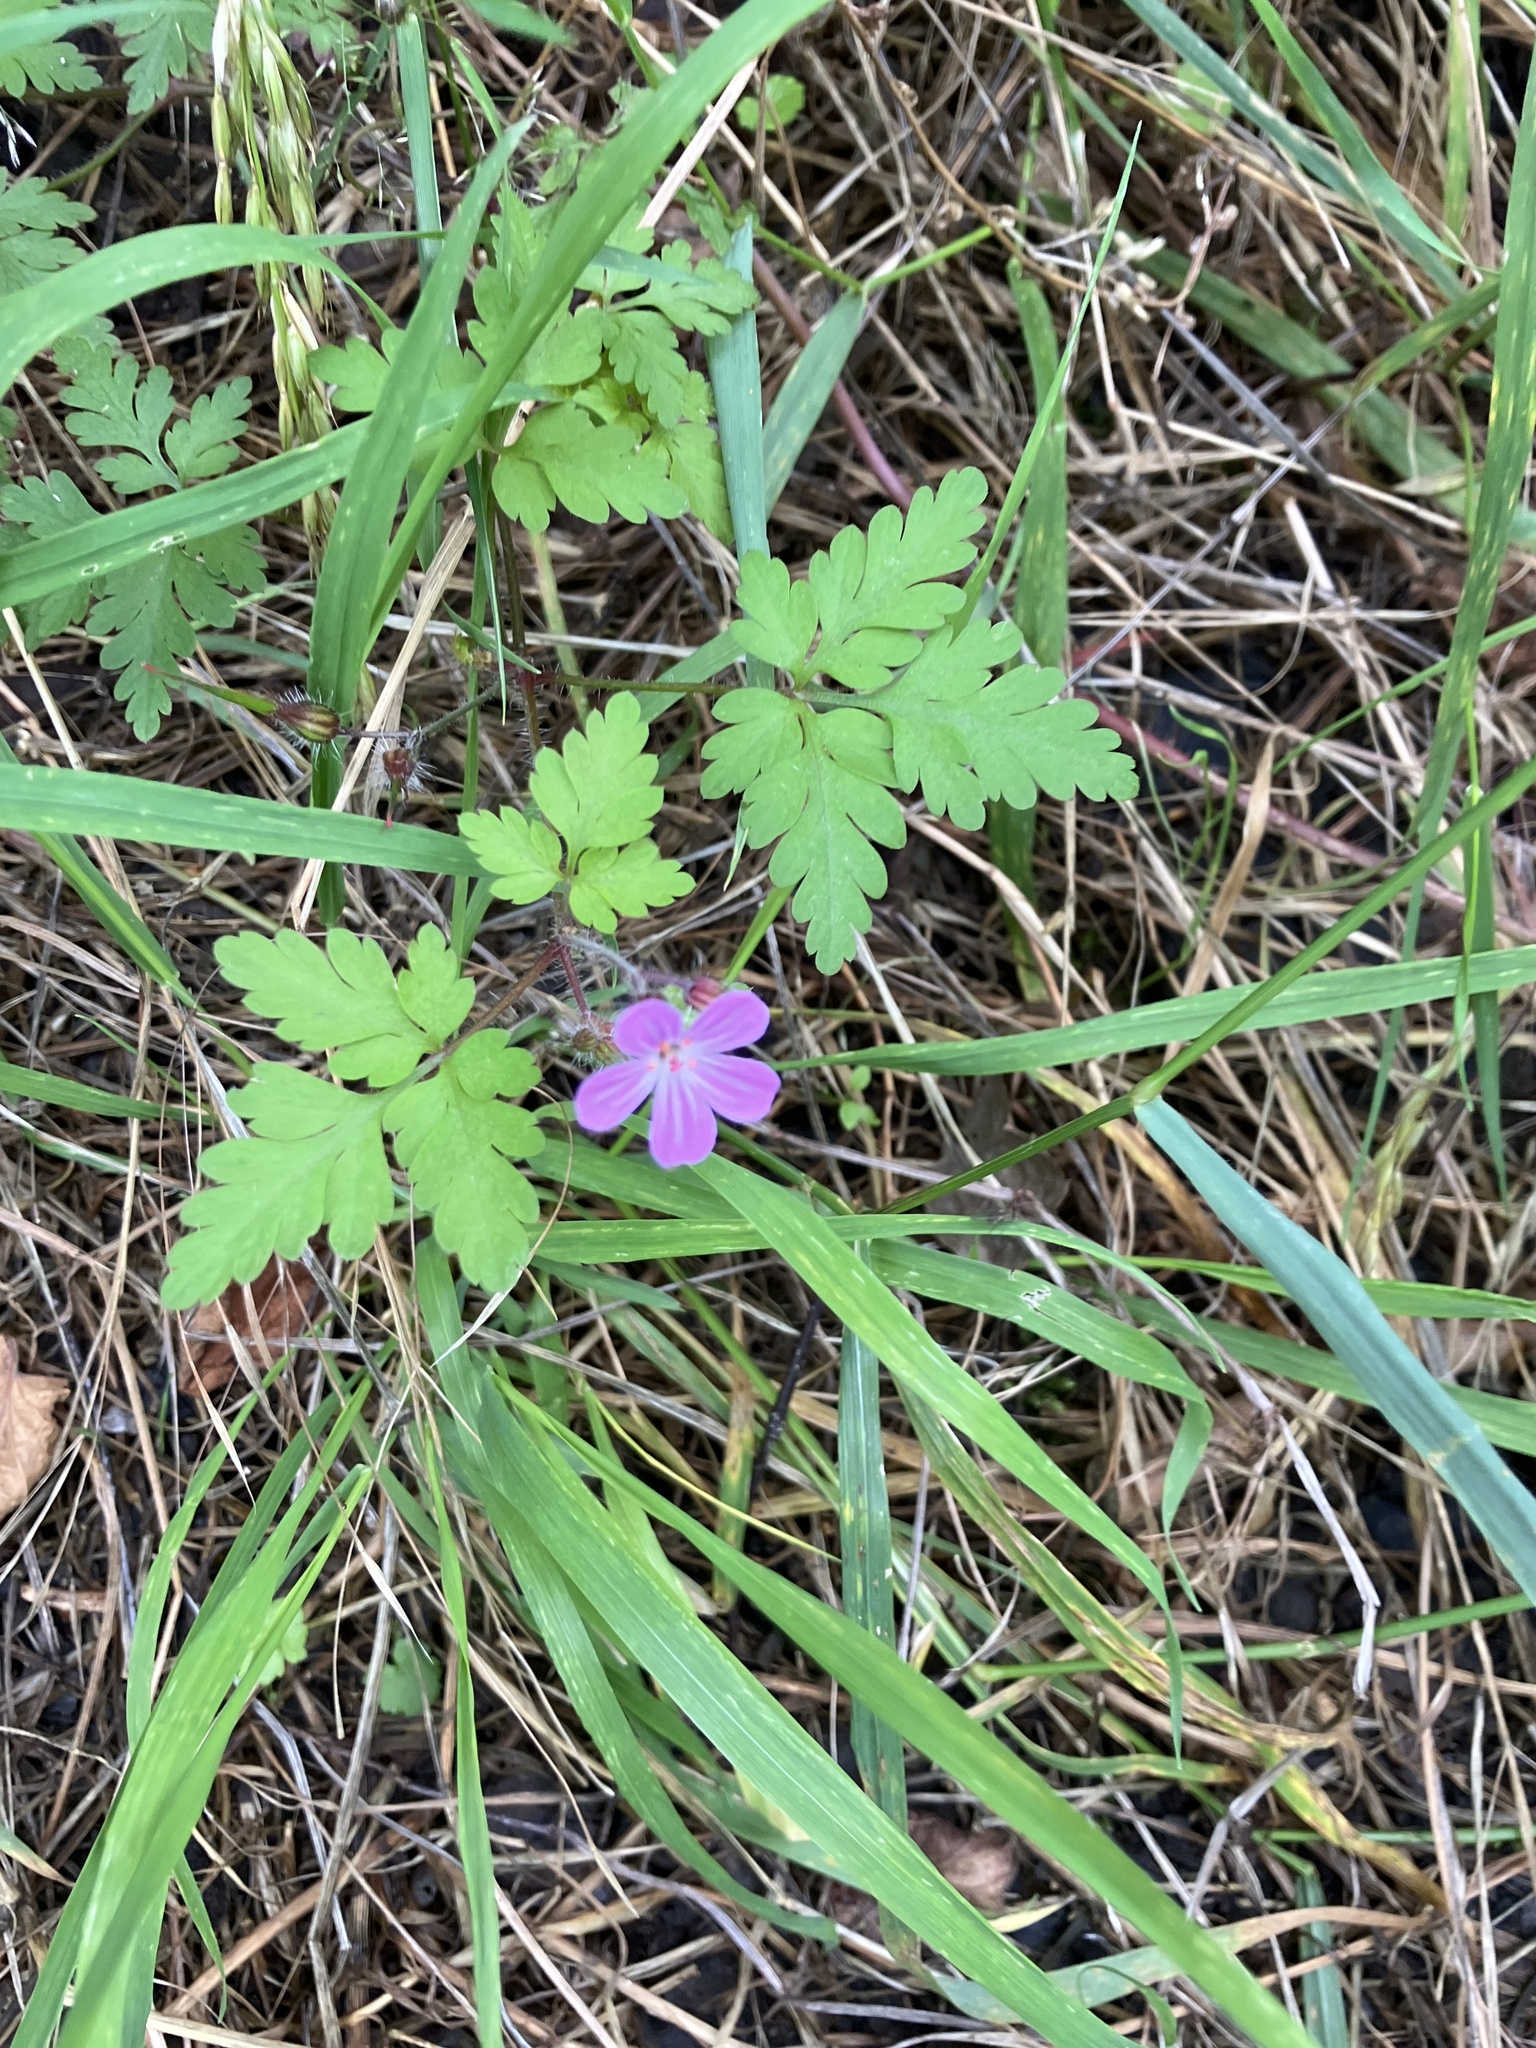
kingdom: Plantae
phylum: Tracheophyta
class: Magnoliopsida
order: Geraniales
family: Geraniaceae
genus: Geranium
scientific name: Geranium robertianum
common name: Herb-robert
